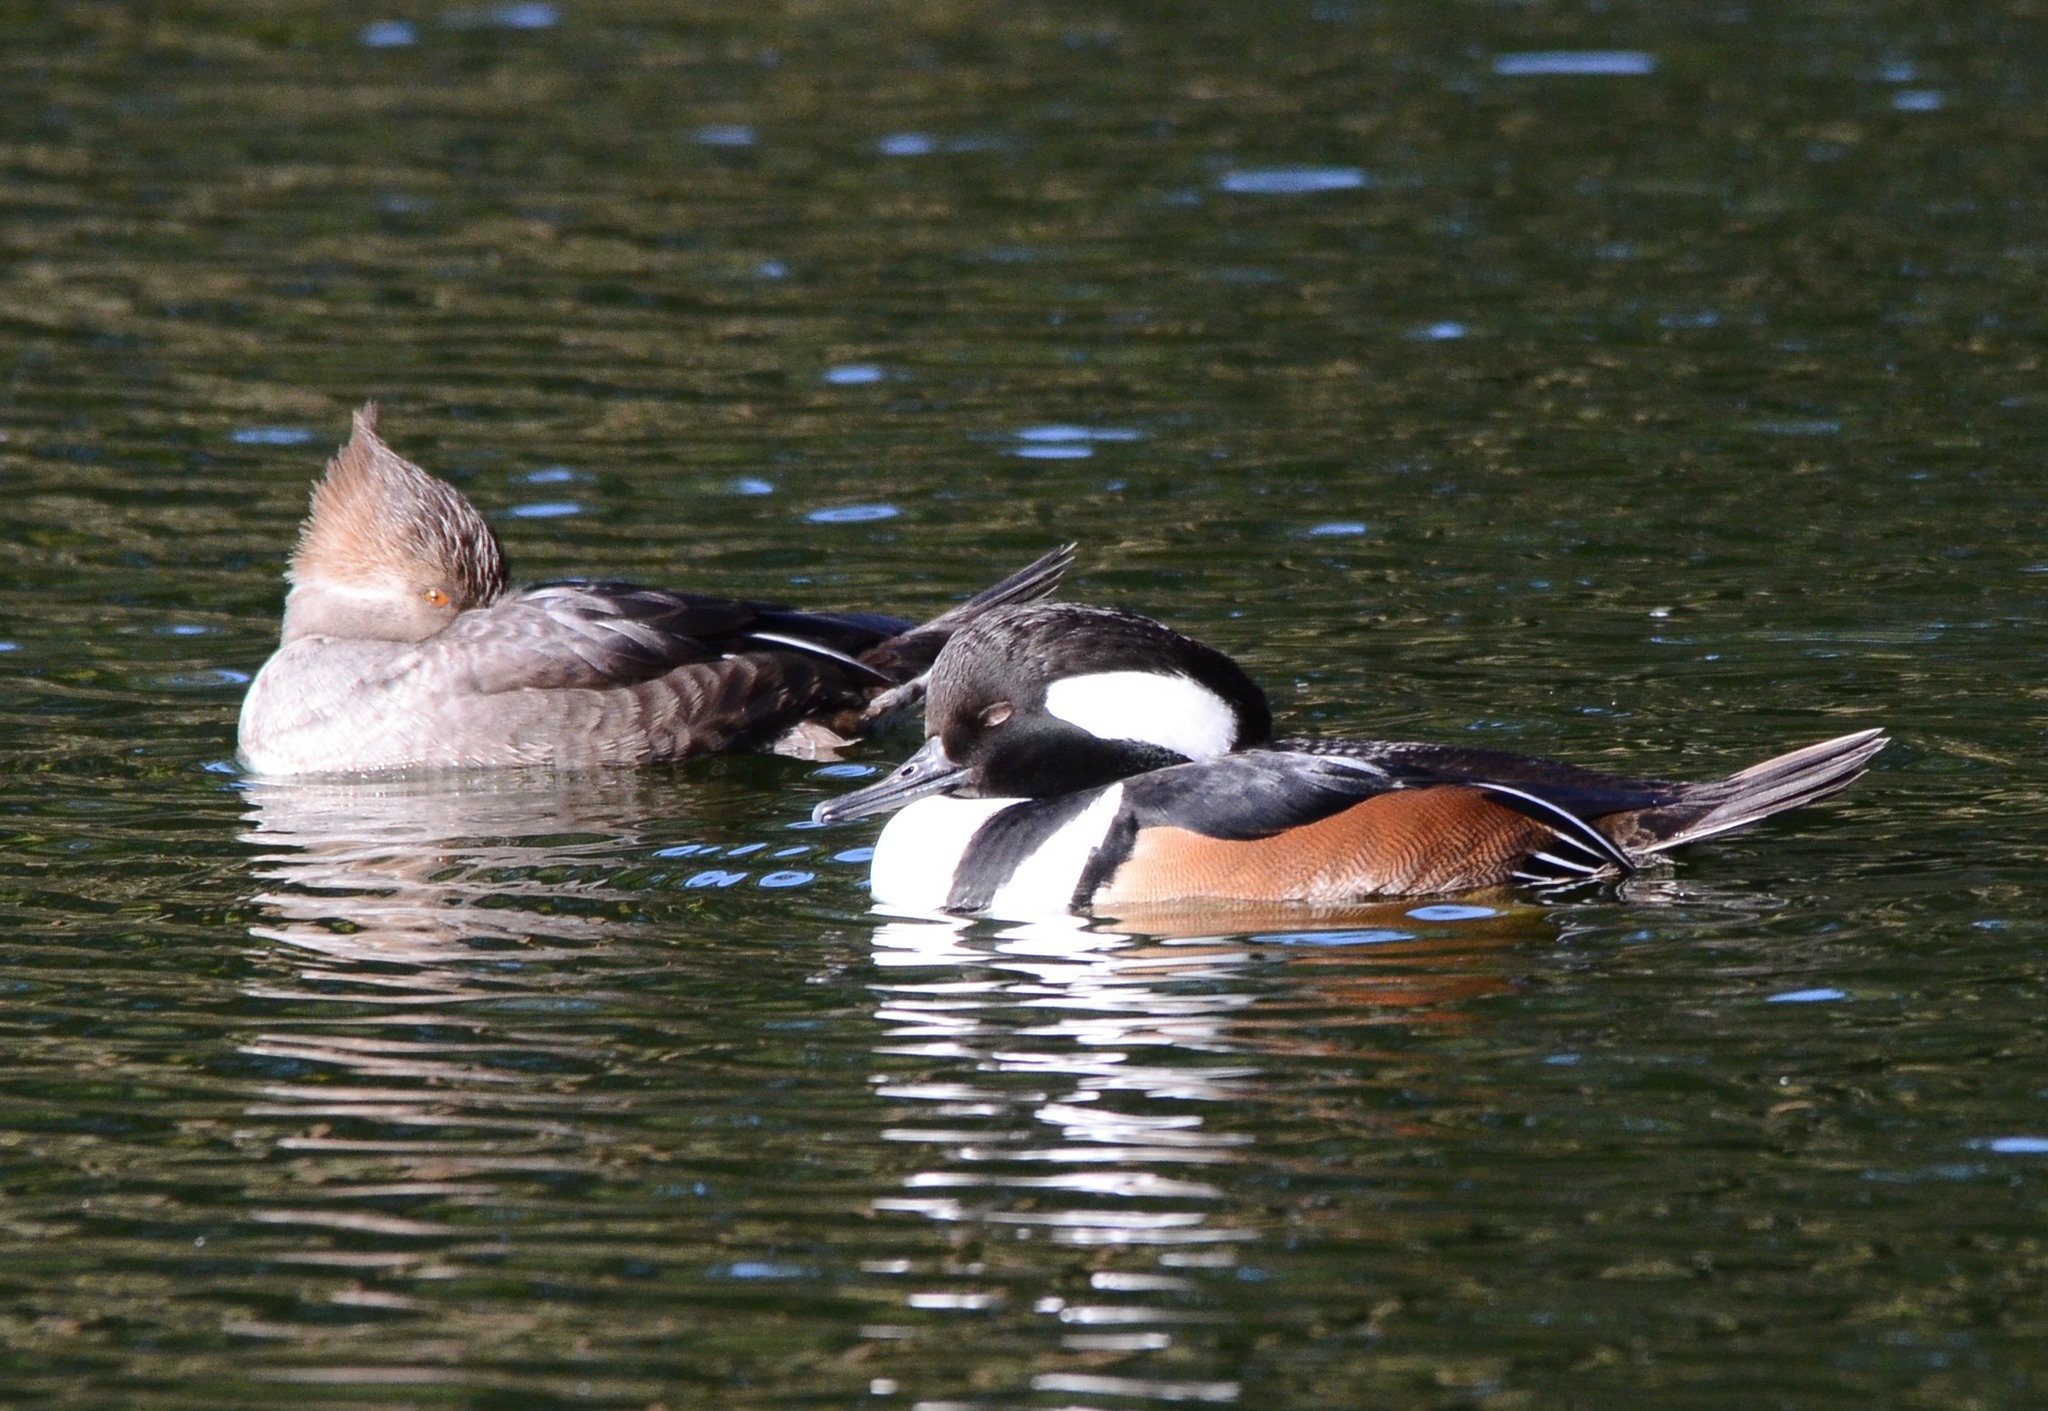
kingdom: Animalia
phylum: Chordata
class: Aves
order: Anseriformes
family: Anatidae
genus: Lophodytes
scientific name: Lophodytes cucullatus
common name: Hooded merganser
